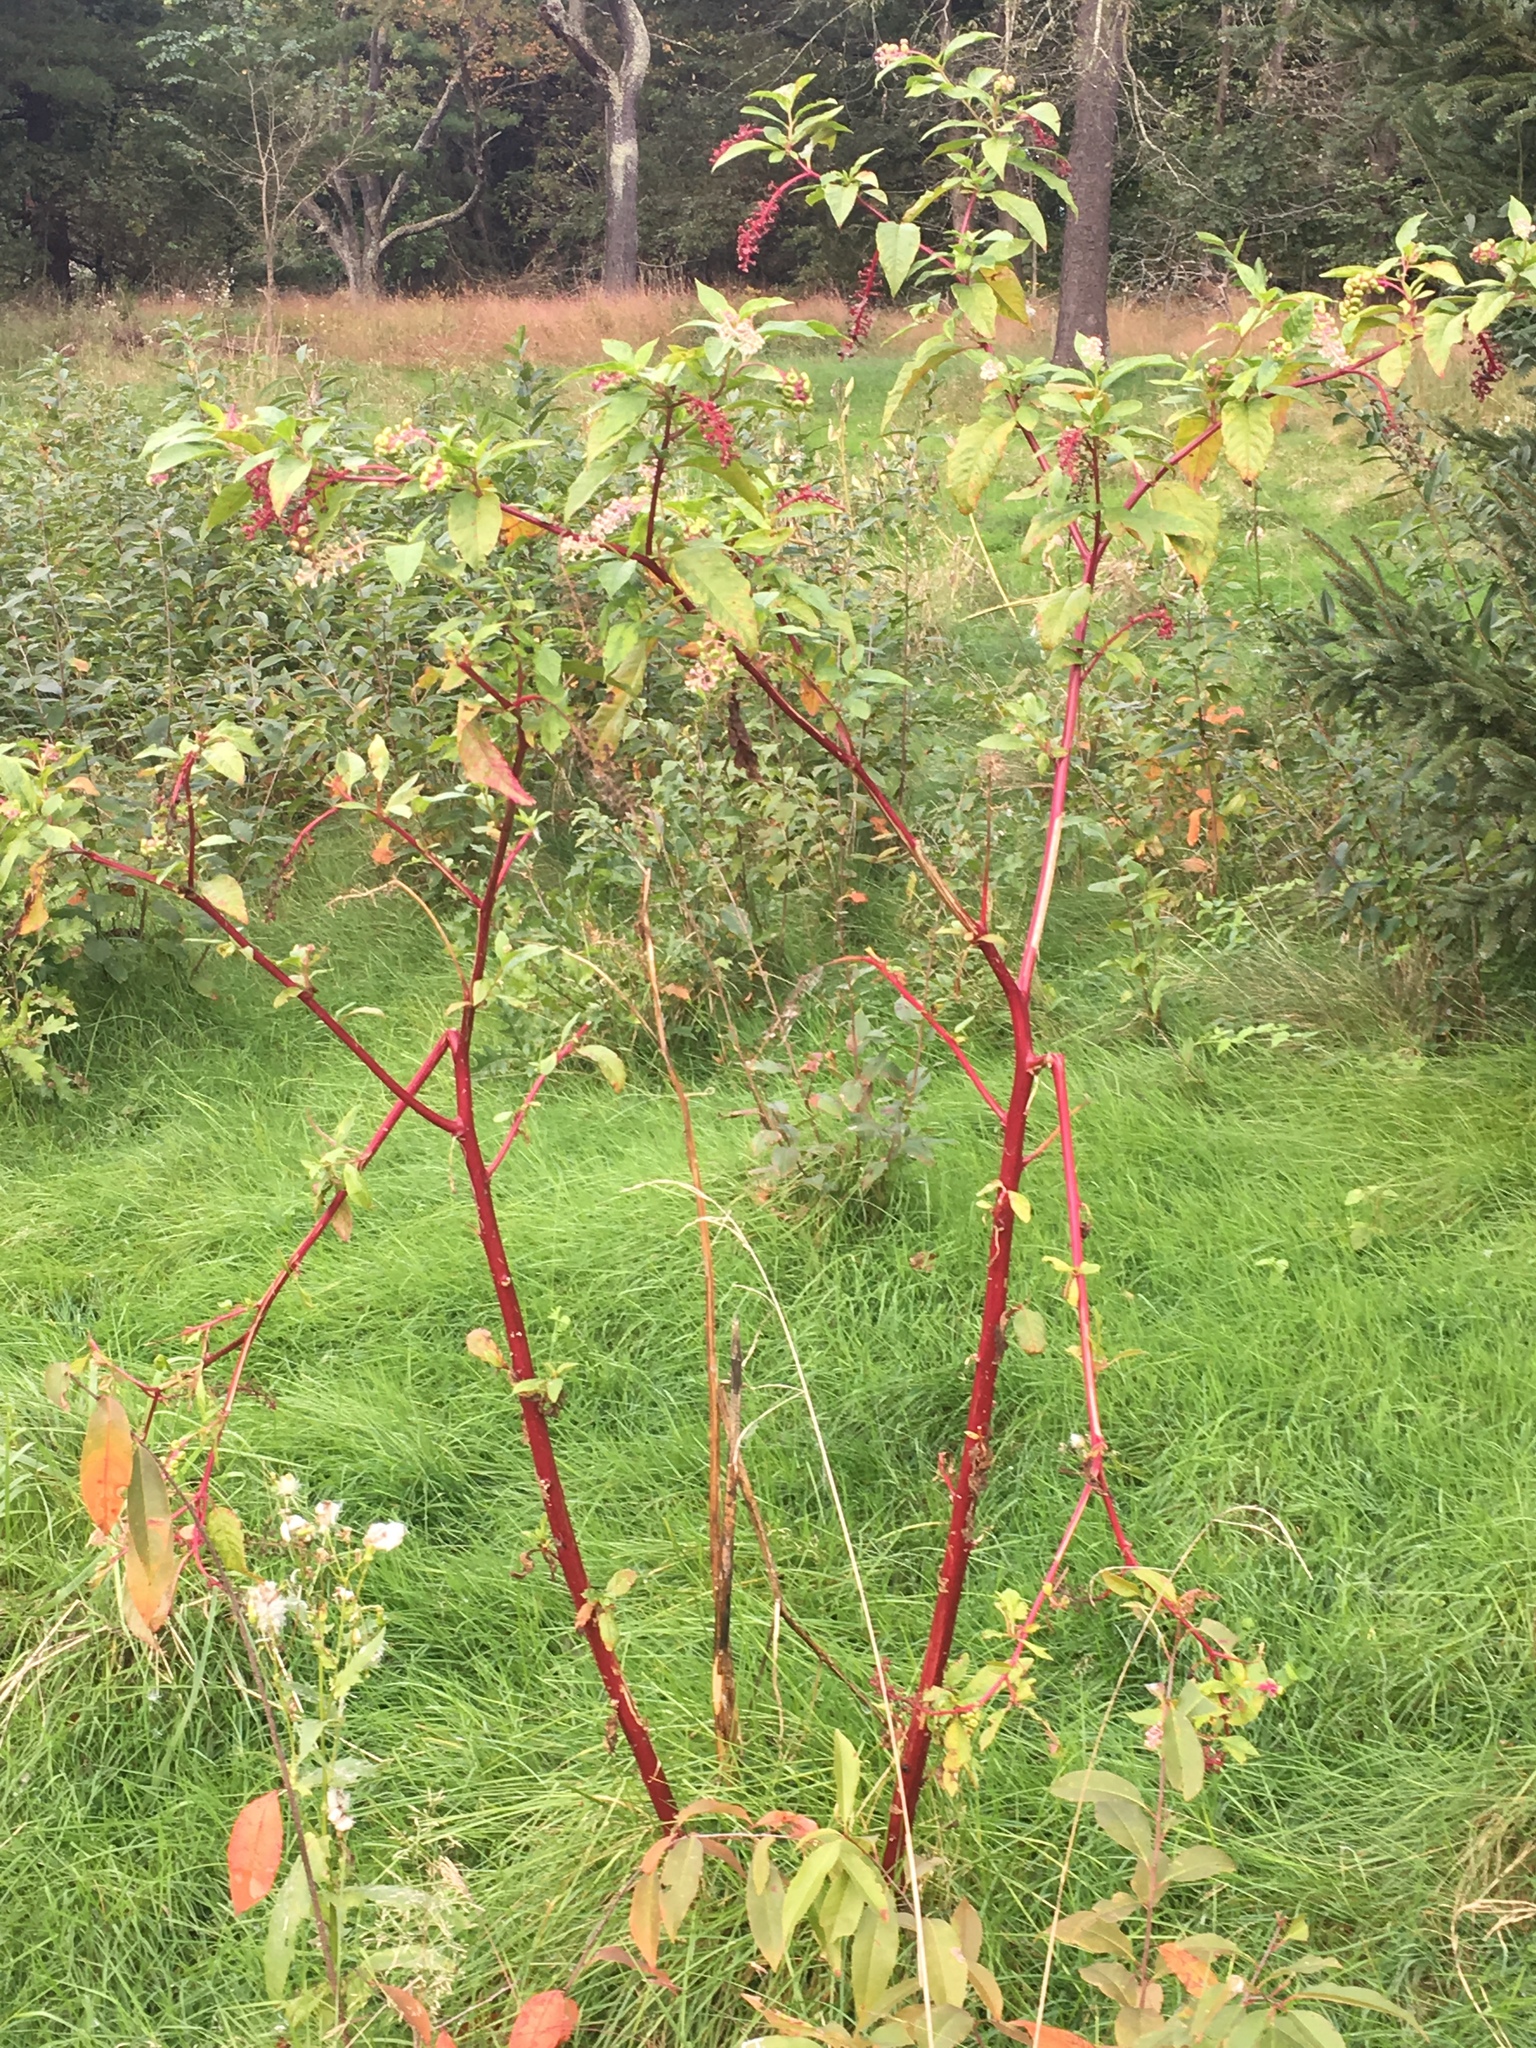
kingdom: Plantae
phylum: Tracheophyta
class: Magnoliopsida
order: Caryophyllales
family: Phytolaccaceae
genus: Phytolacca
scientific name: Phytolacca americana
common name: American pokeweed
